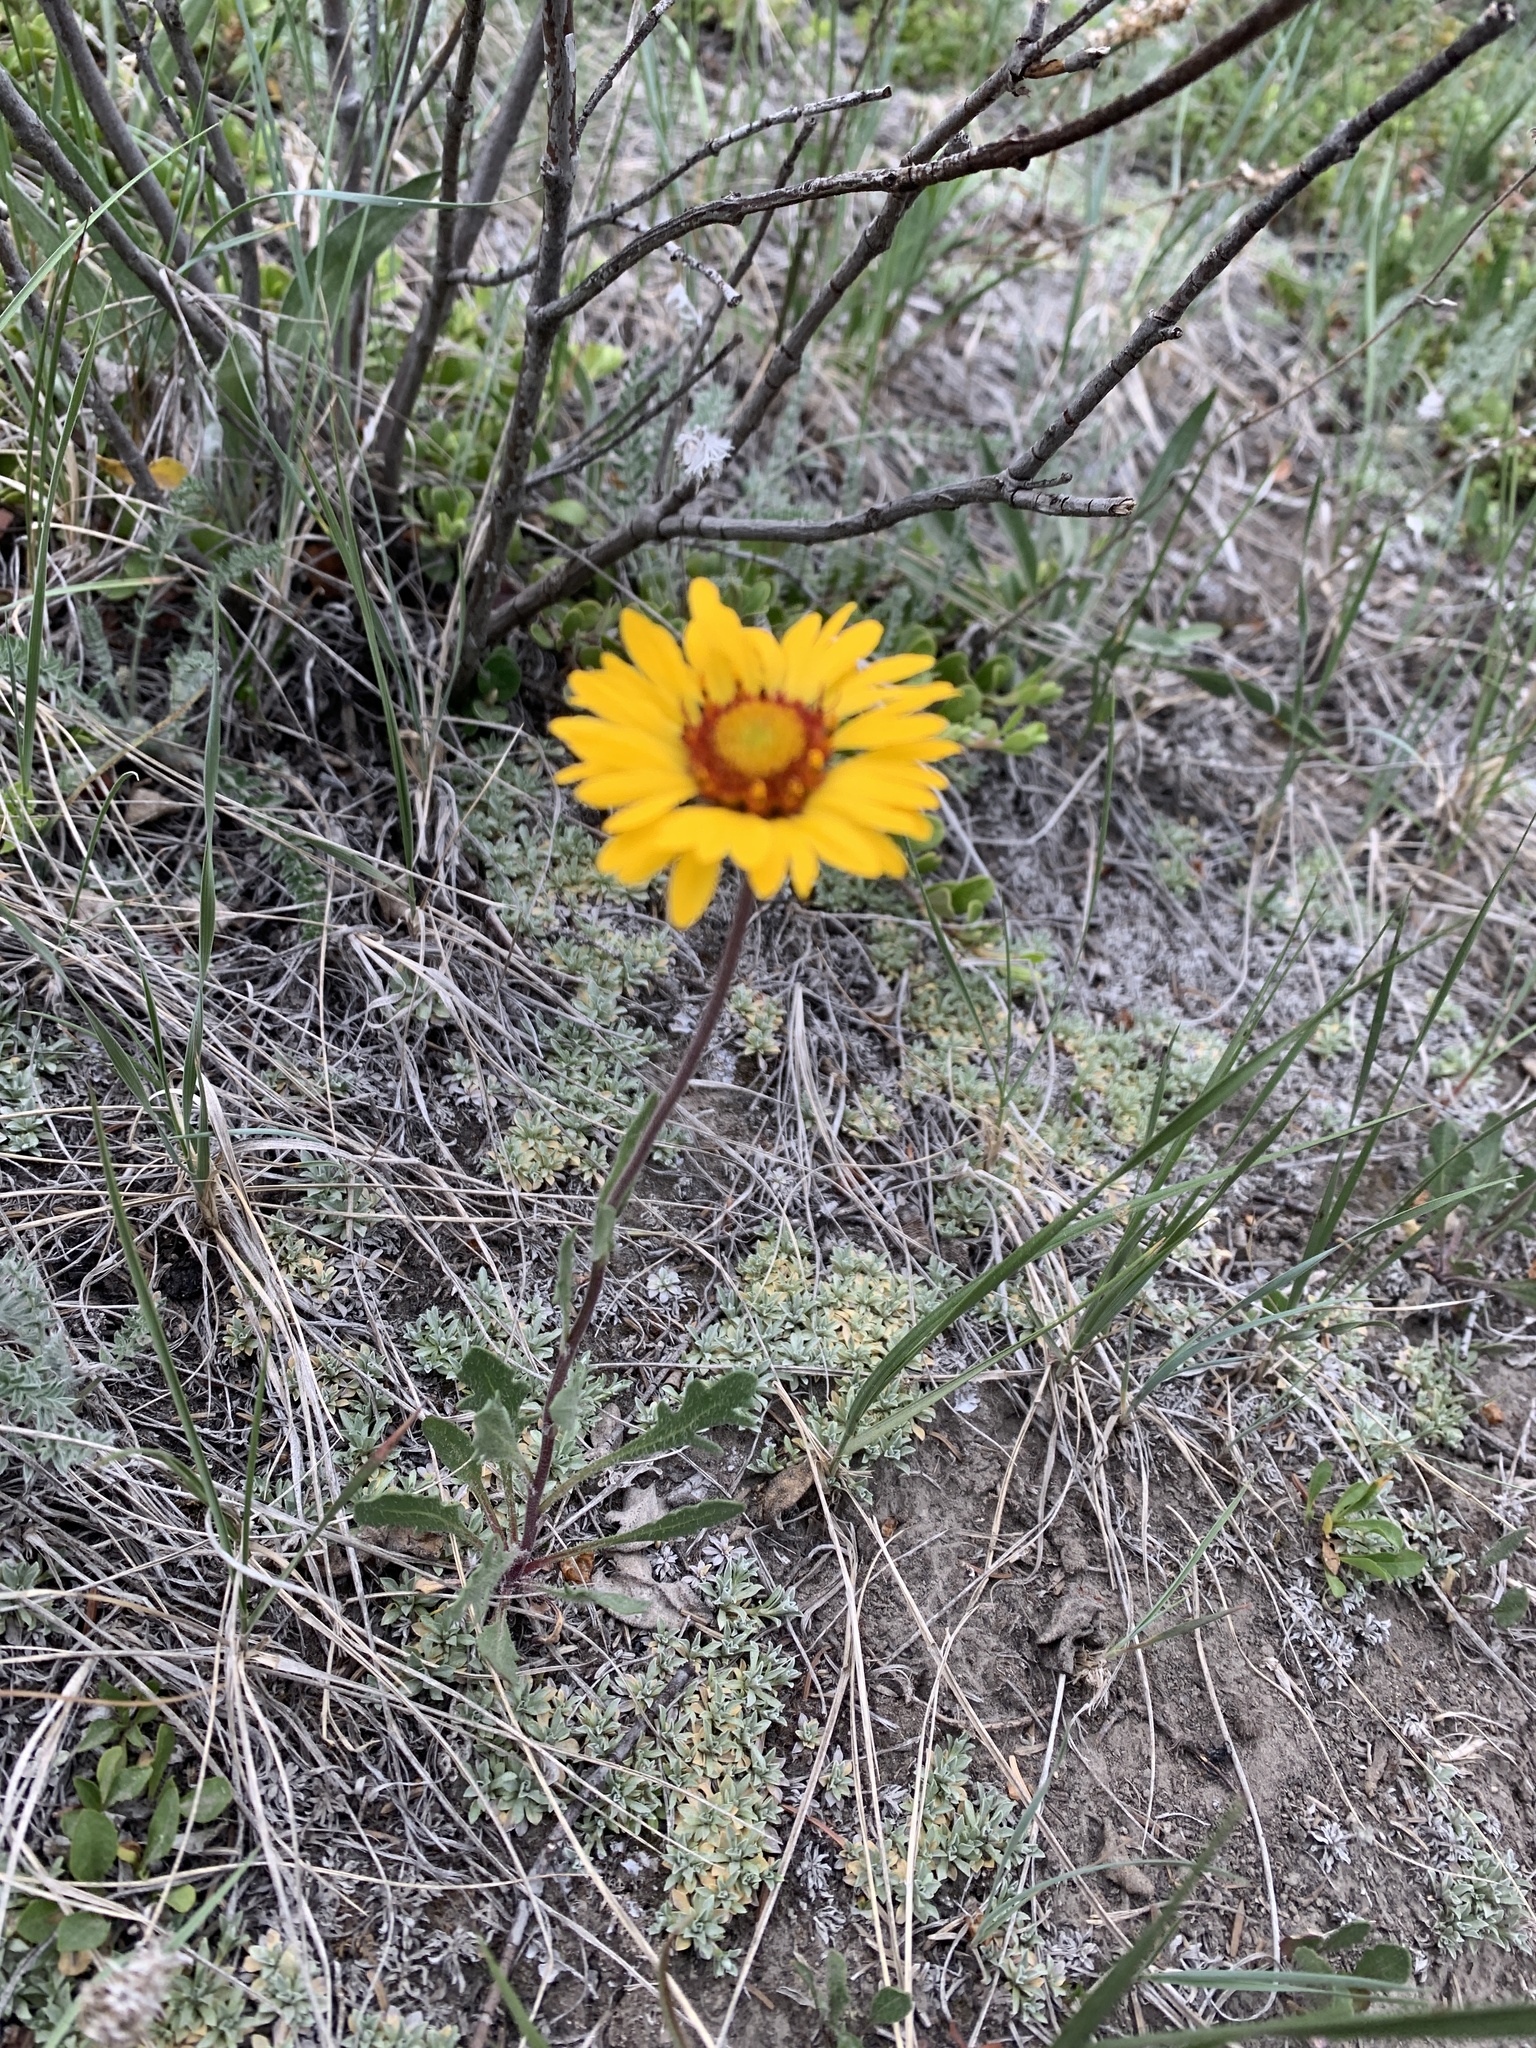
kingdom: Plantae
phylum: Tracheophyta
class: Magnoliopsida
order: Asterales
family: Asteraceae
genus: Gaillardia
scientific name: Gaillardia aristata
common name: Blanket-flower
